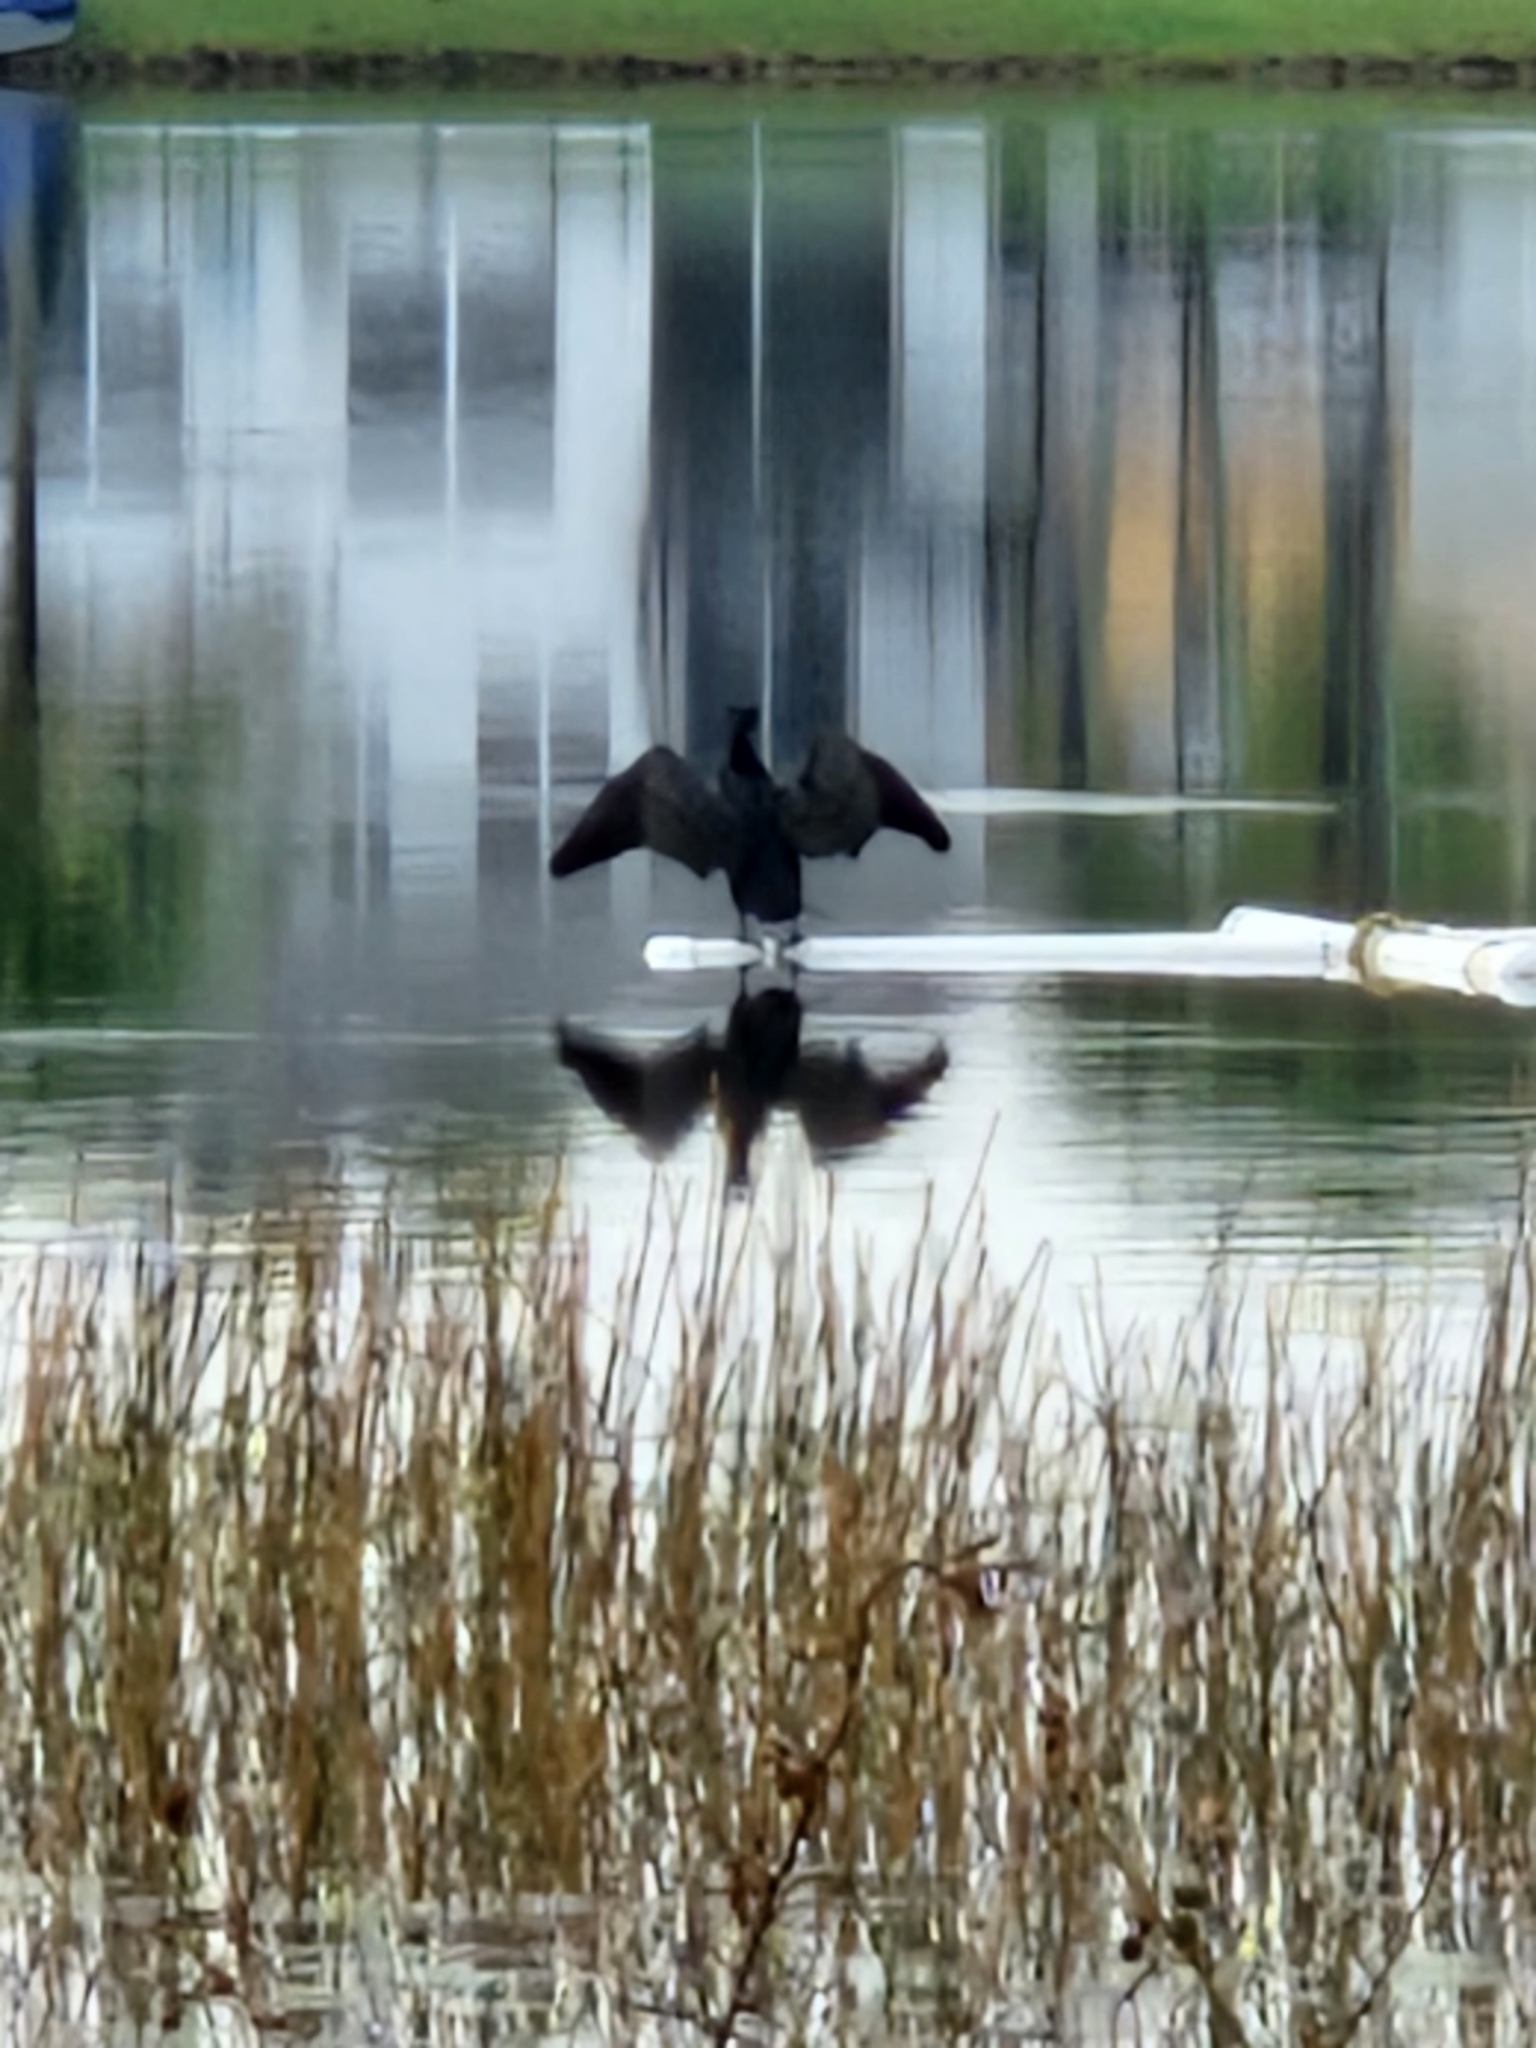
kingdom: Animalia
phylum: Chordata
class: Aves
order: Suliformes
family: Phalacrocoracidae
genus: Phalacrocorax
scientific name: Phalacrocorax auritus
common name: Double-crested cormorant
